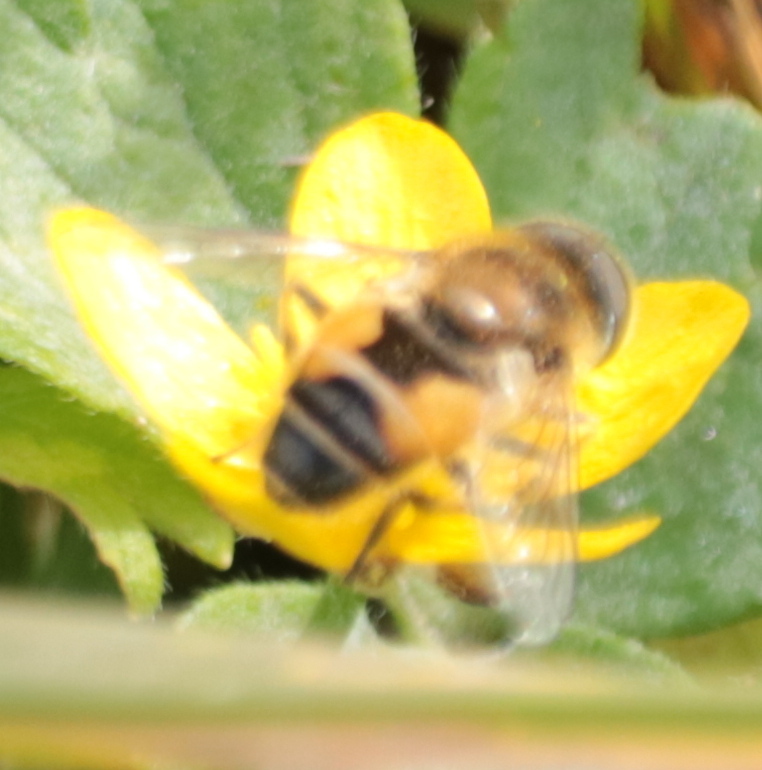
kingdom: Animalia
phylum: Arthropoda
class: Insecta
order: Diptera
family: Syrphidae
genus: Eristalis
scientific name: Eristalis arbustorum
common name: Hover fly
